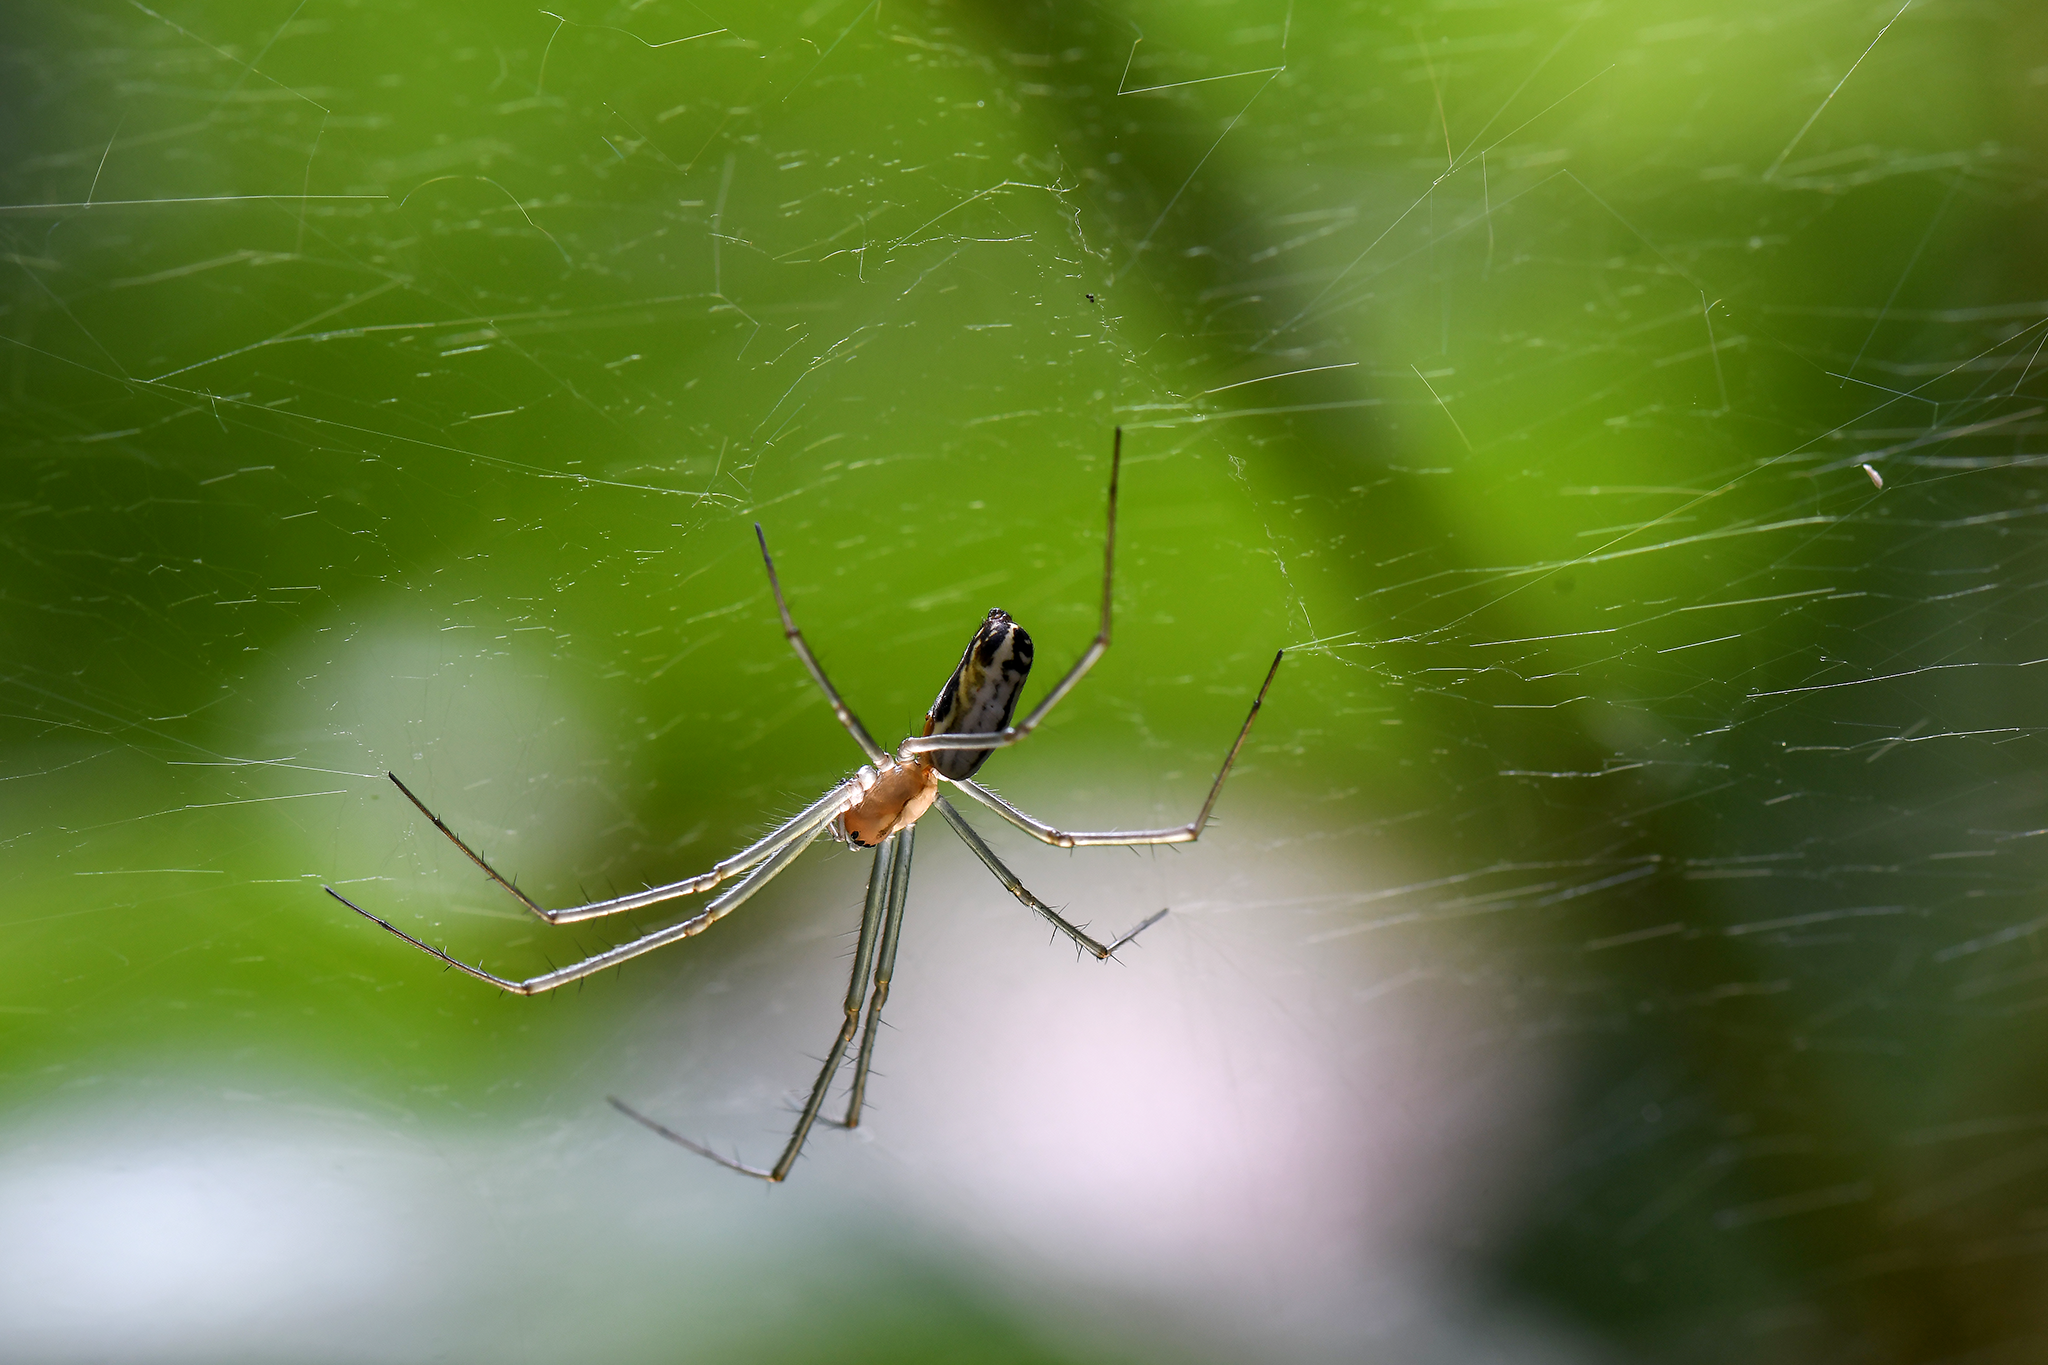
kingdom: Animalia
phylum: Arthropoda
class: Arachnida
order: Araneae
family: Linyphiidae
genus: Neriene
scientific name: Neriene litigiosa
